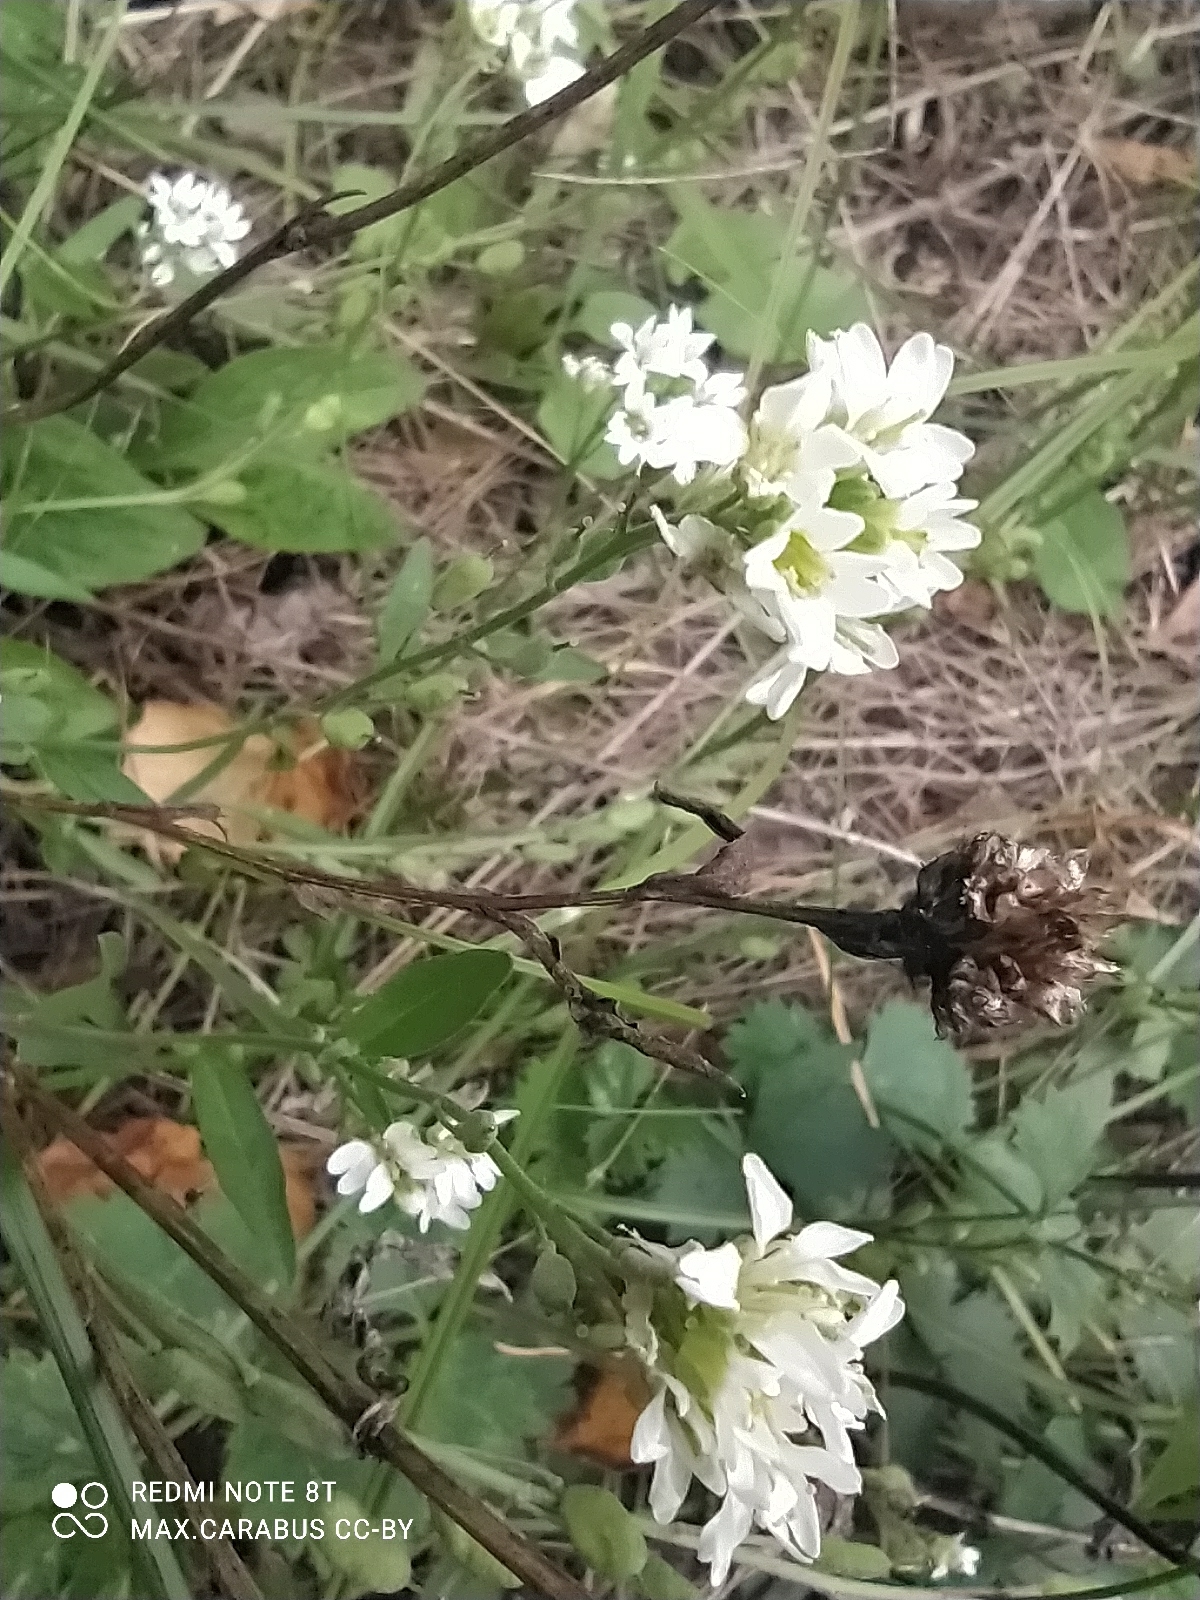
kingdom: Plantae
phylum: Tracheophyta
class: Magnoliopsida
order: Brassicales
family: Brassicaceae
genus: Berteroa
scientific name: Berteroa incana
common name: Hoary alison
